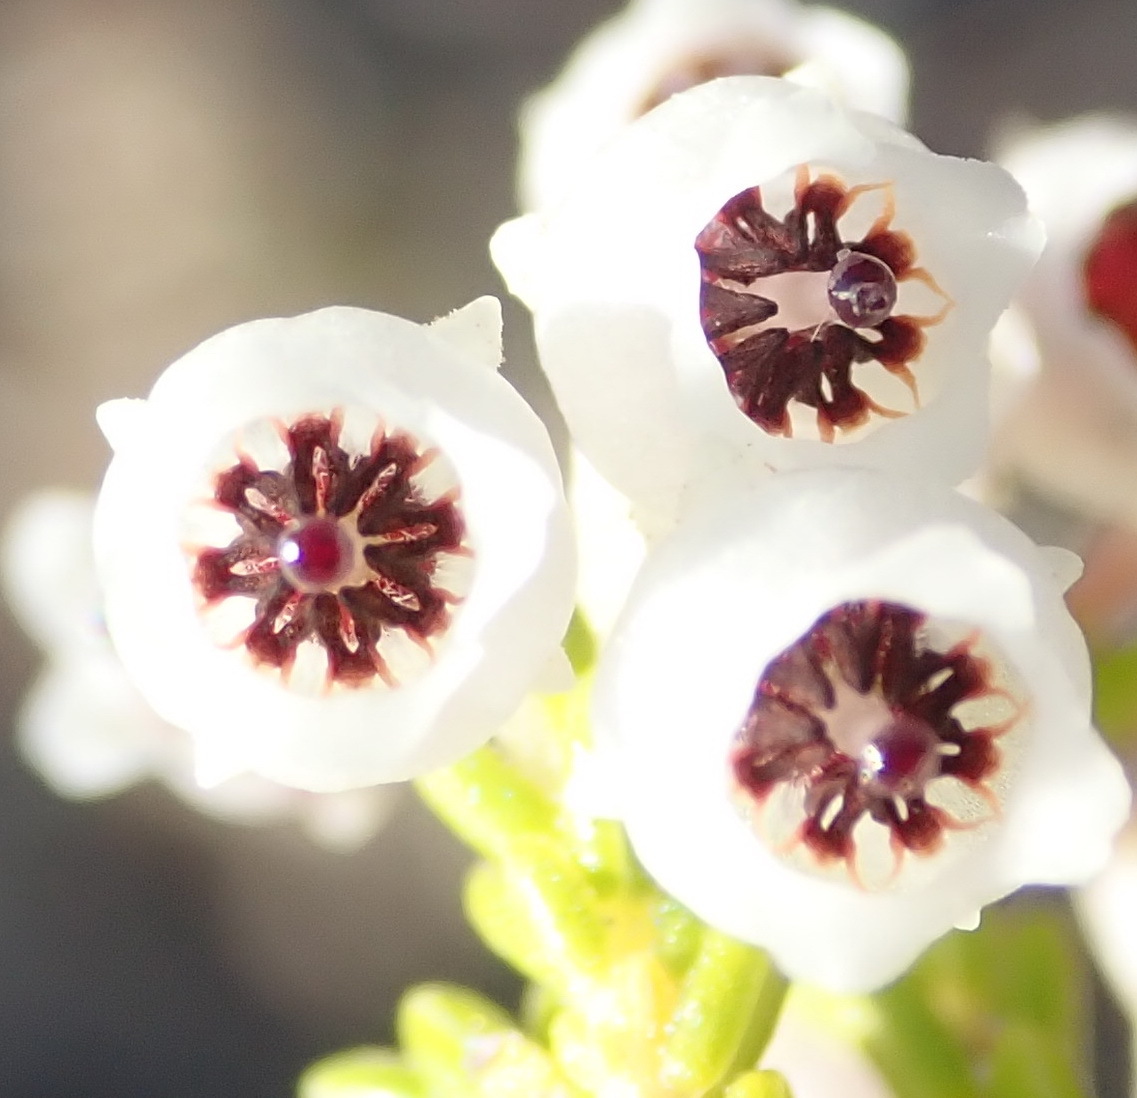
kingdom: Plantae
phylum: Tracheophyta
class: Magnoliopsida
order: Ericales
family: Ericaceae
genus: Erica
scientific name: Erica syngenesia
